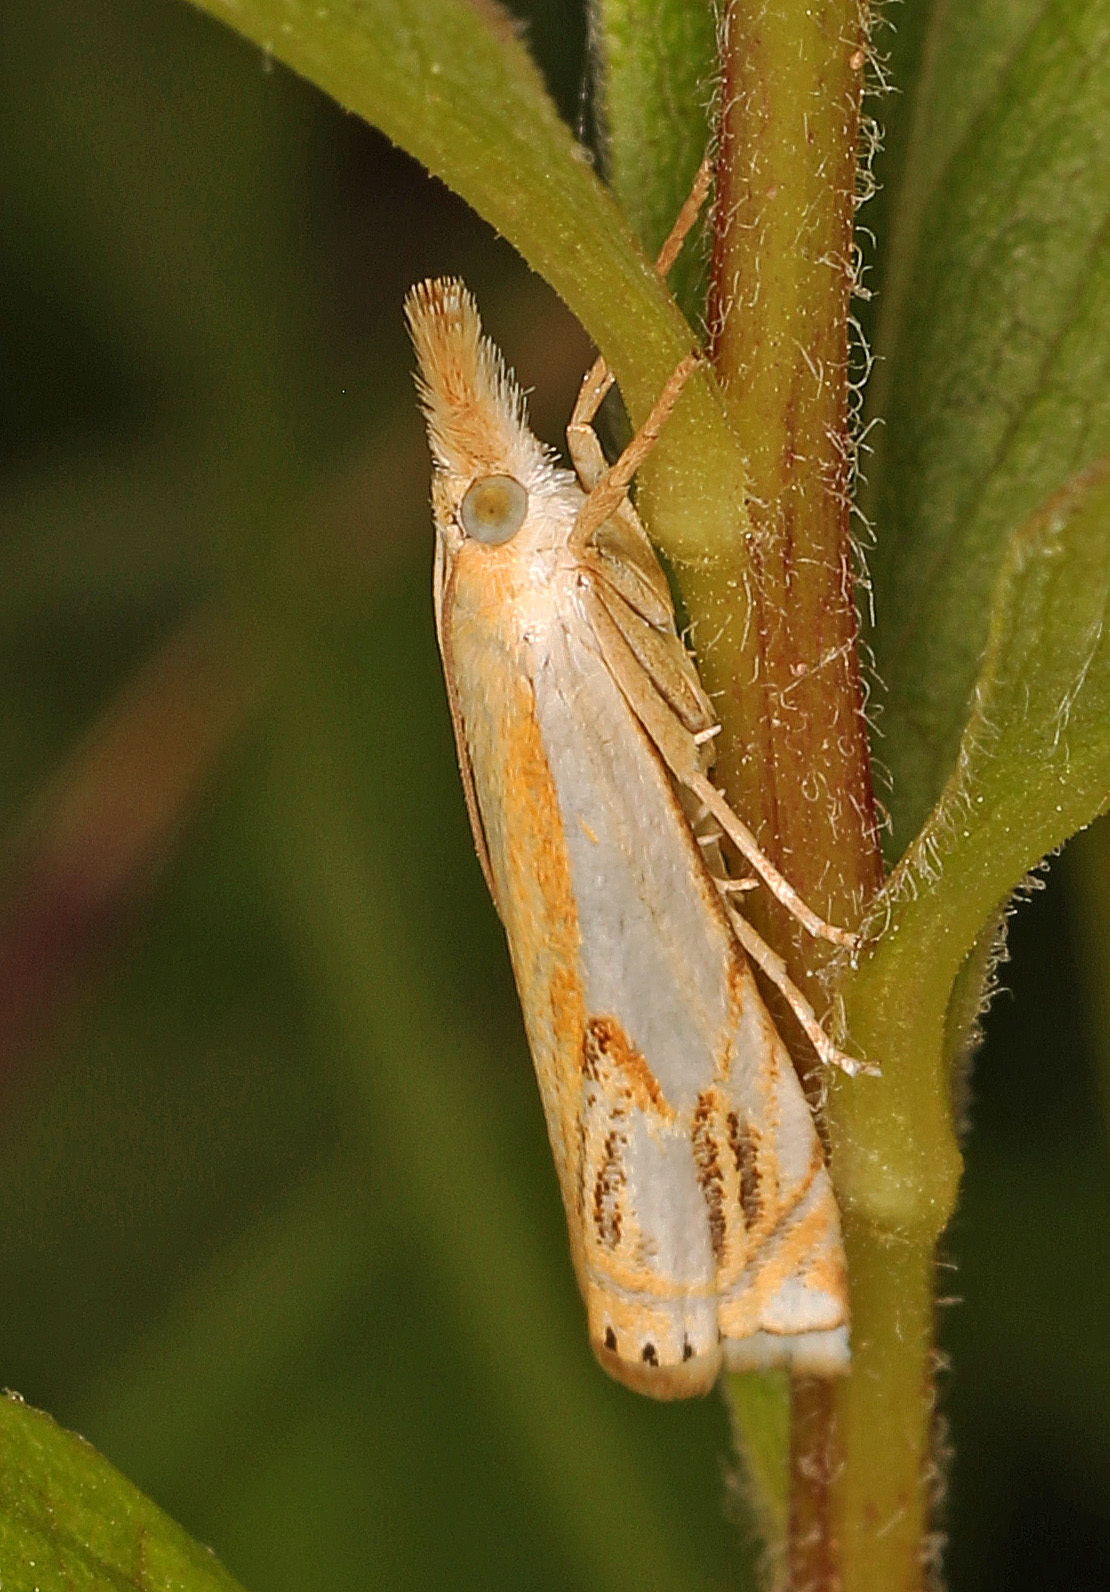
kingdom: Animalia
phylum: Arthropoda
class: Insecta
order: Lepidoptera
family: Crambidae
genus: Crambus
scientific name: Crambus agitatellus
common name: Double-banded grass-veneer
